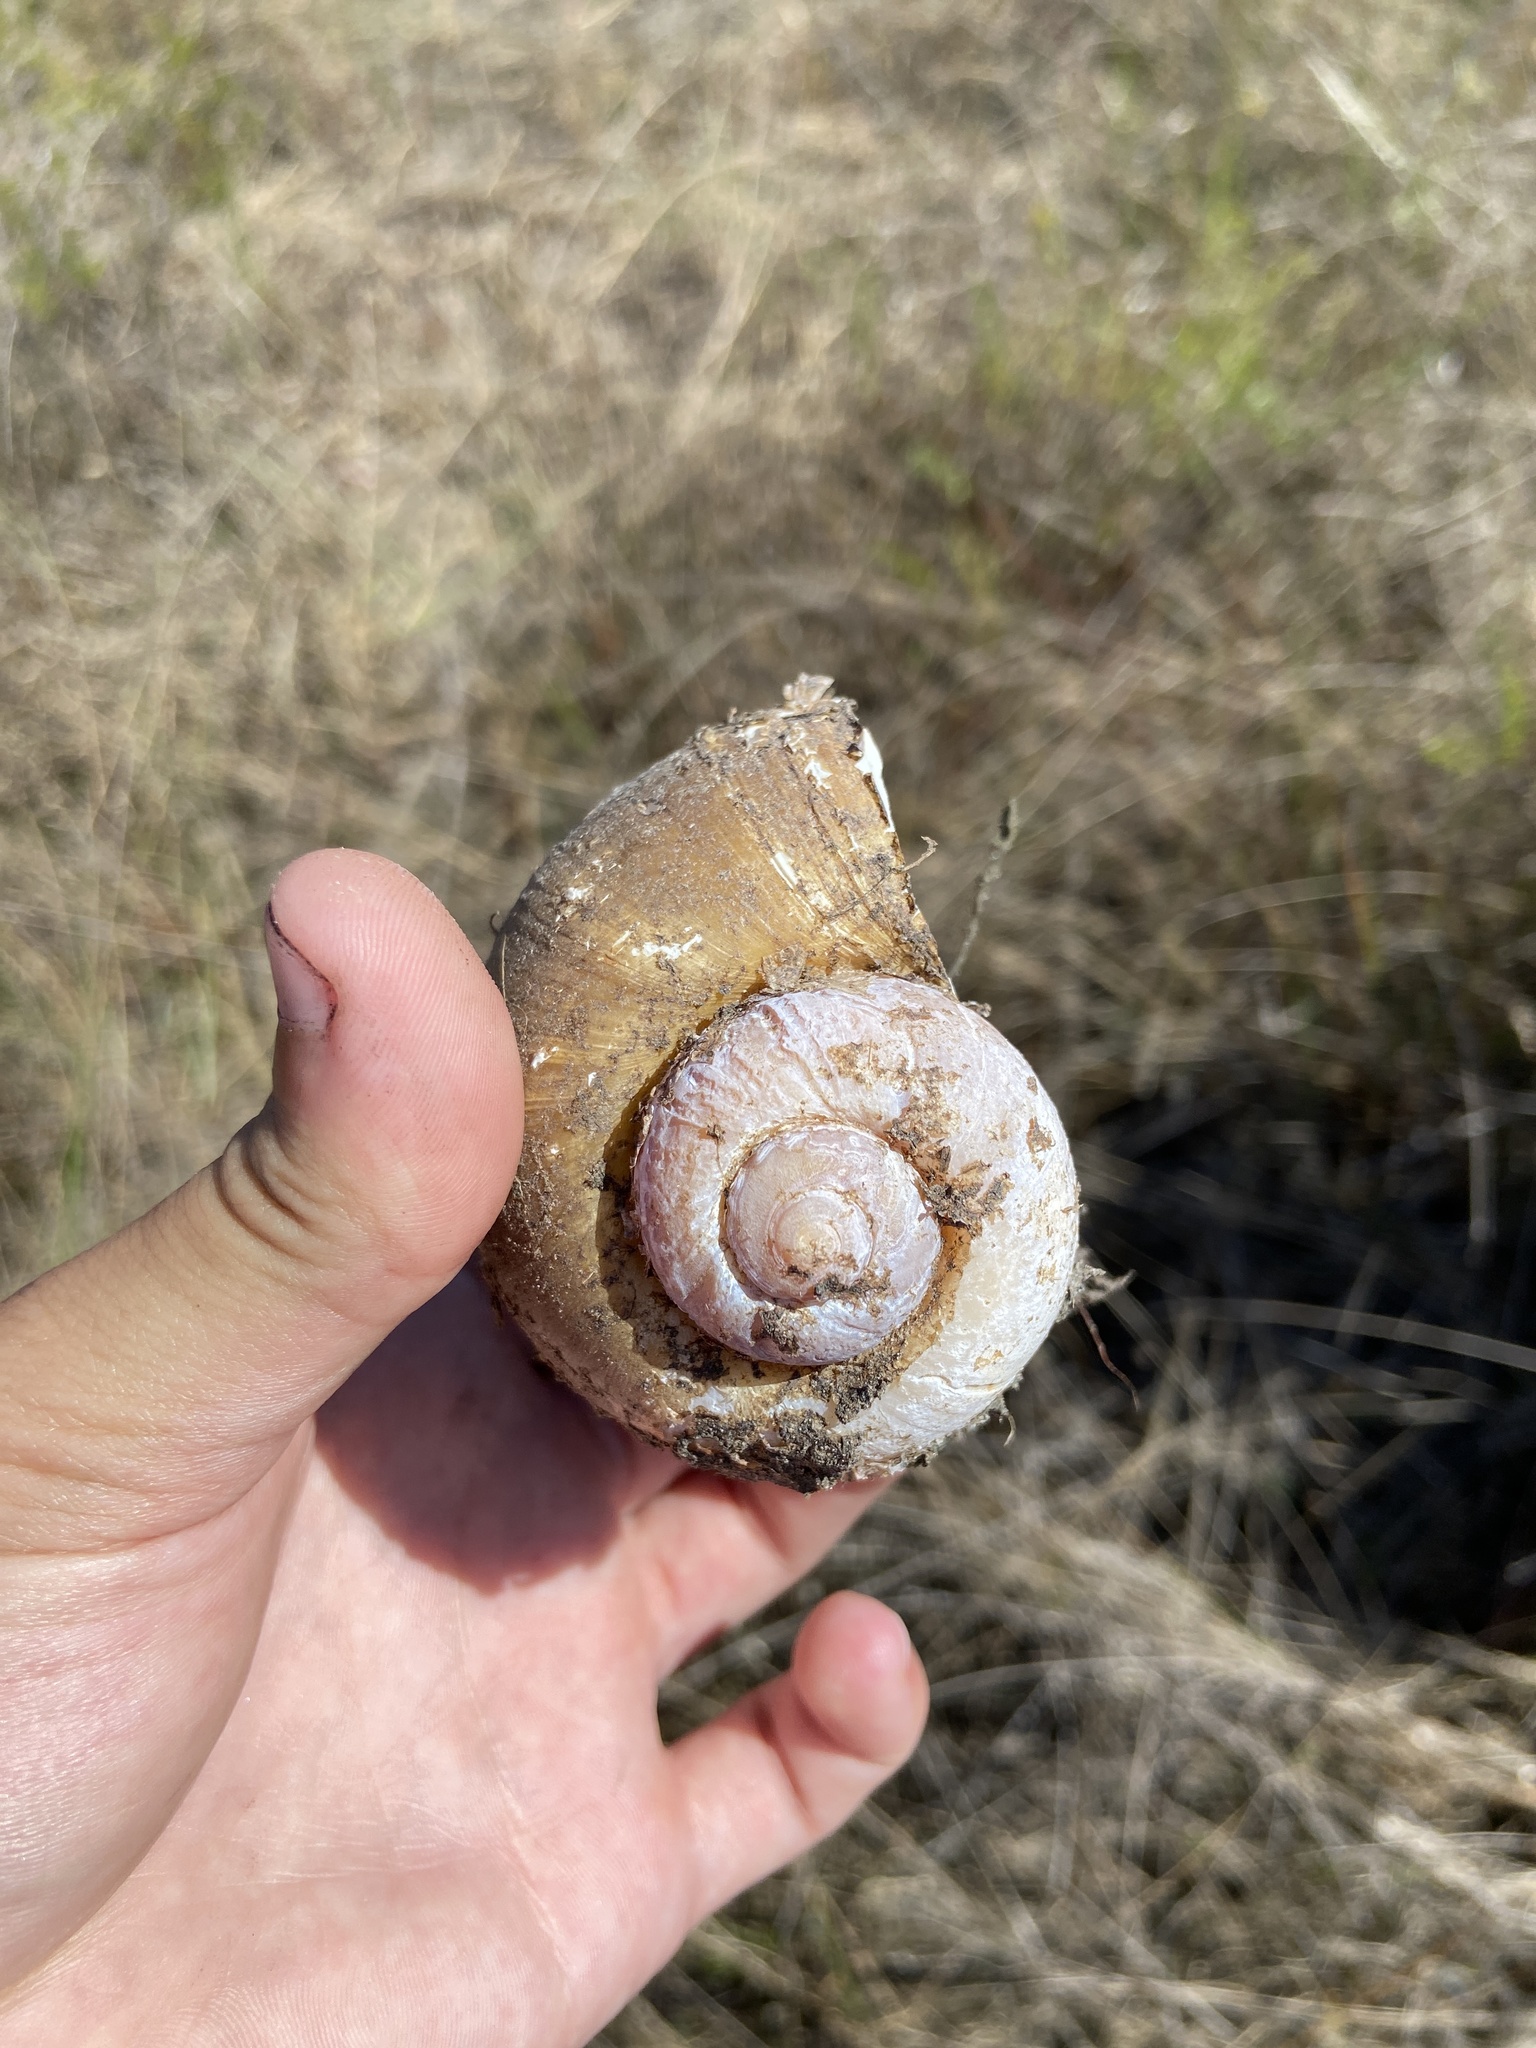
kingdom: Animalia
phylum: Mollusca
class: Gastropoda
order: Architaenioglossa
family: Ampullariidae
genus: Pomacea
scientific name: Pomacea canaliculata
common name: Channeled applesnail
